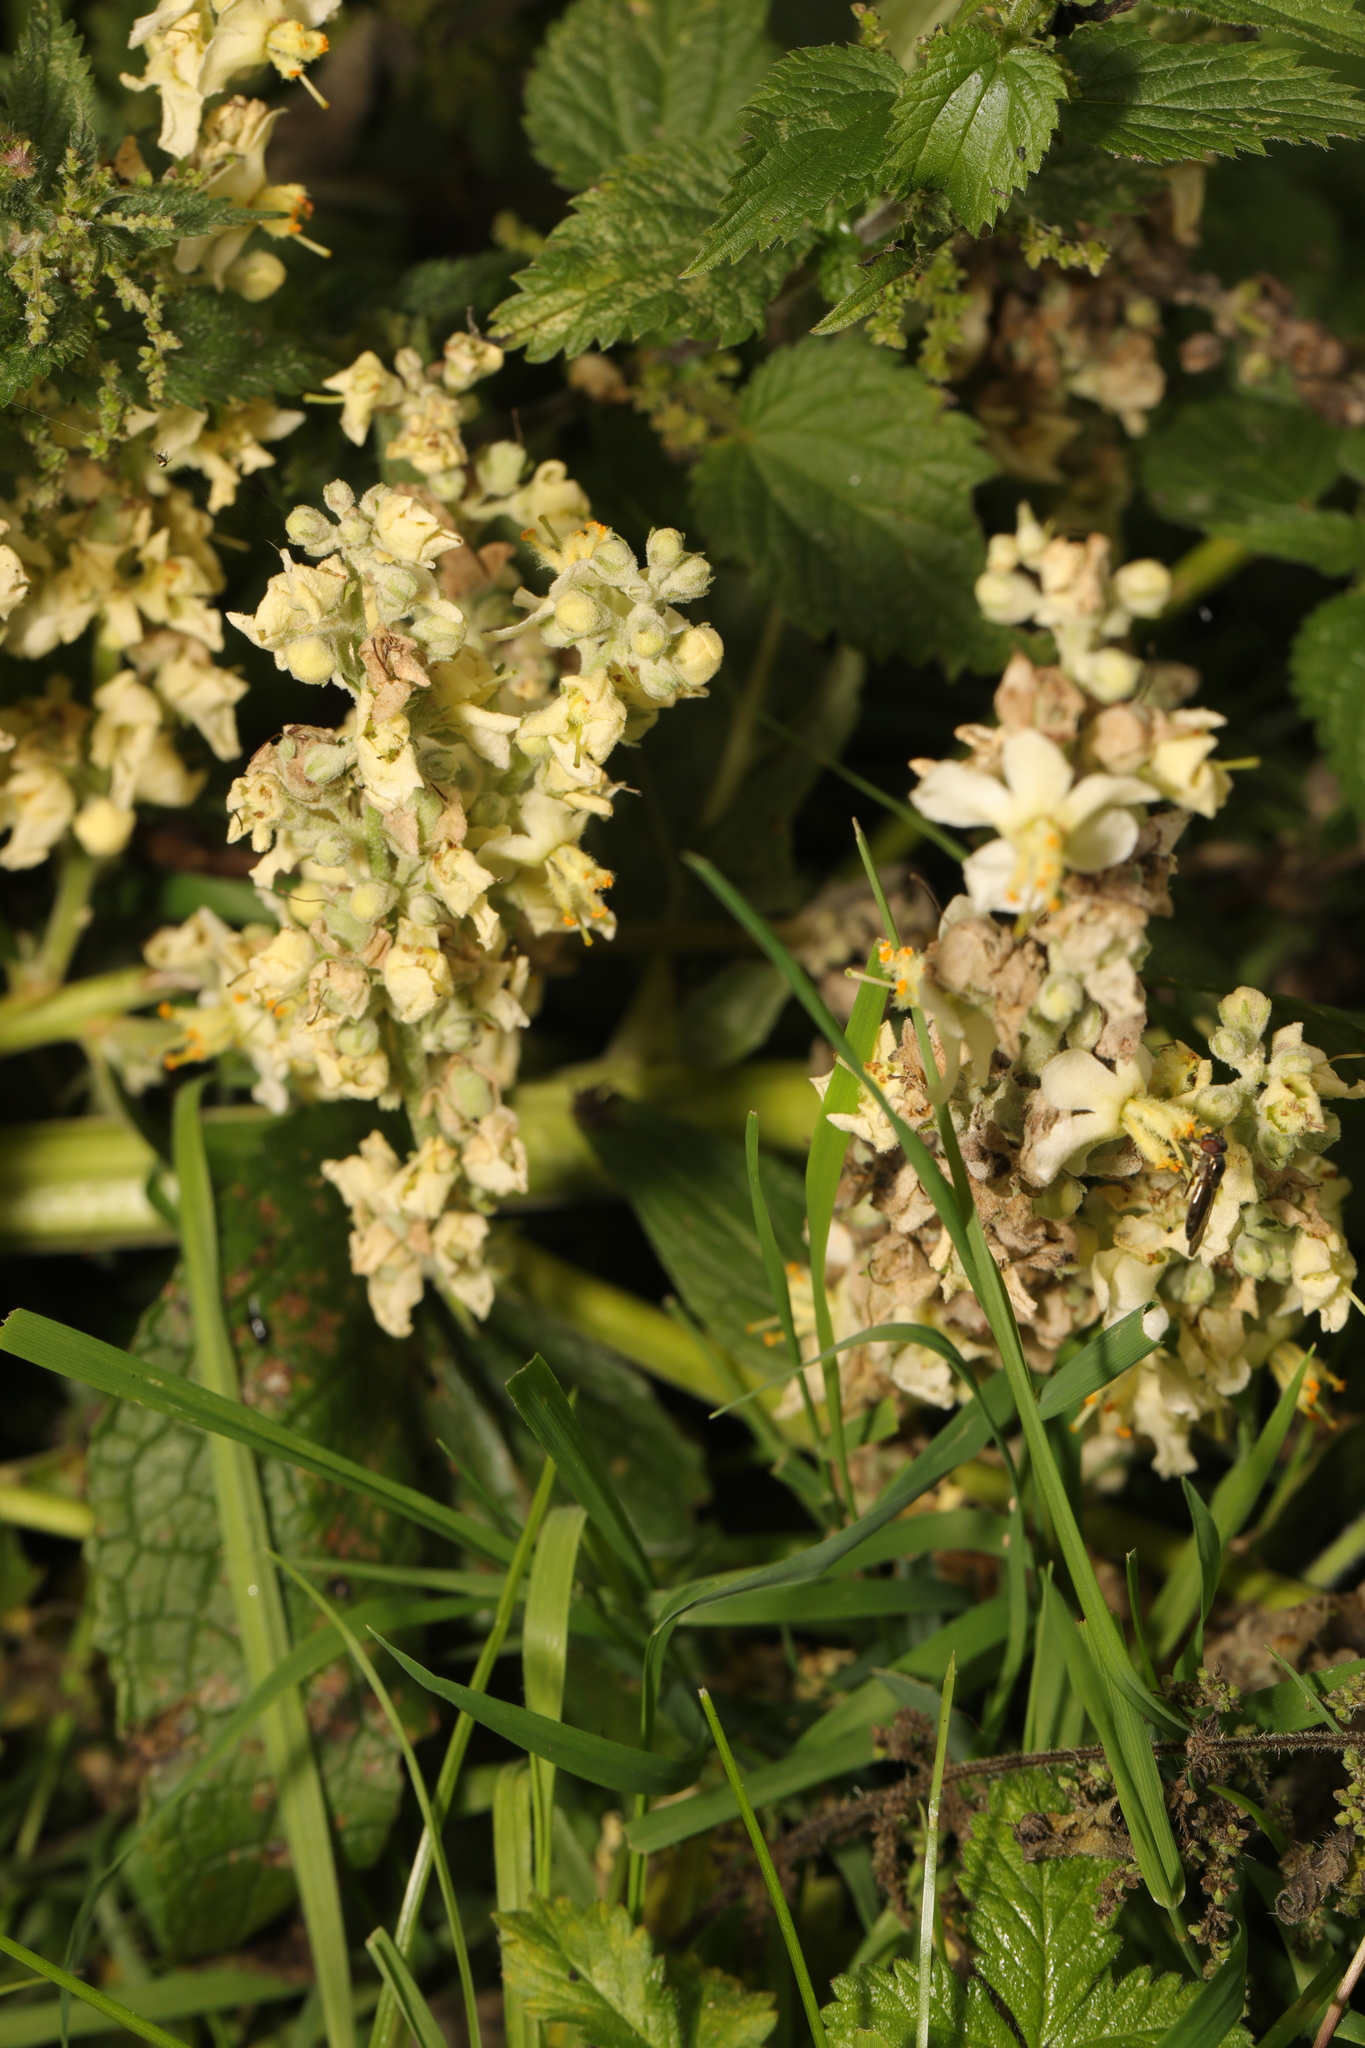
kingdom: Plantae
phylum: Tracheophyta
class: Magnoliopsida
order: Lamiales
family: Scrophulariaceae
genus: Verbascum
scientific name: Verbascum lychnitis
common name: White mullein
